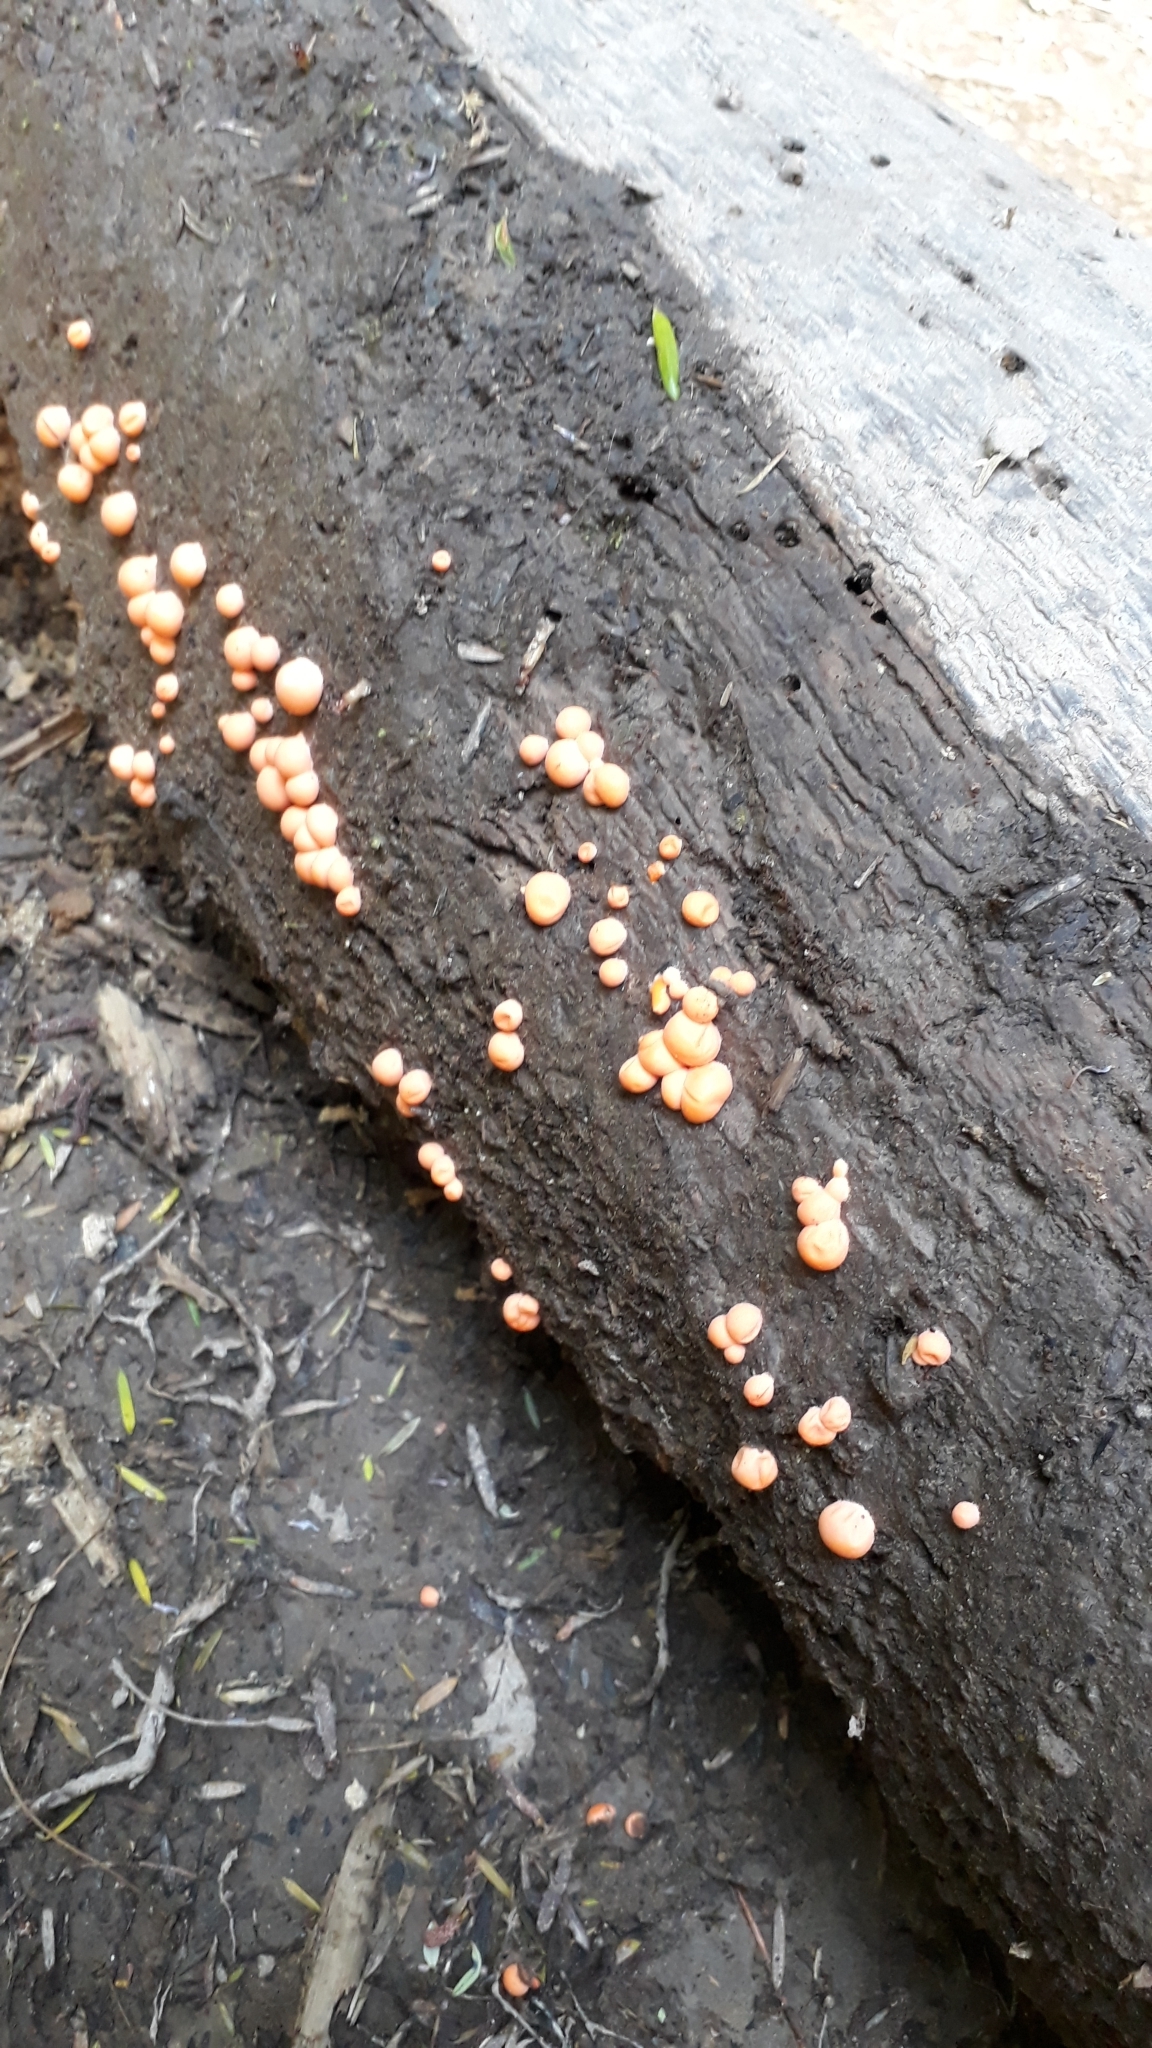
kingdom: Protozoa
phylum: Mycetozoa
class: Myxomycetes
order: Cribrariales
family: Tubiferaceae
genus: Lycogala
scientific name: Lycogala epidendrum
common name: Wolf's milk
